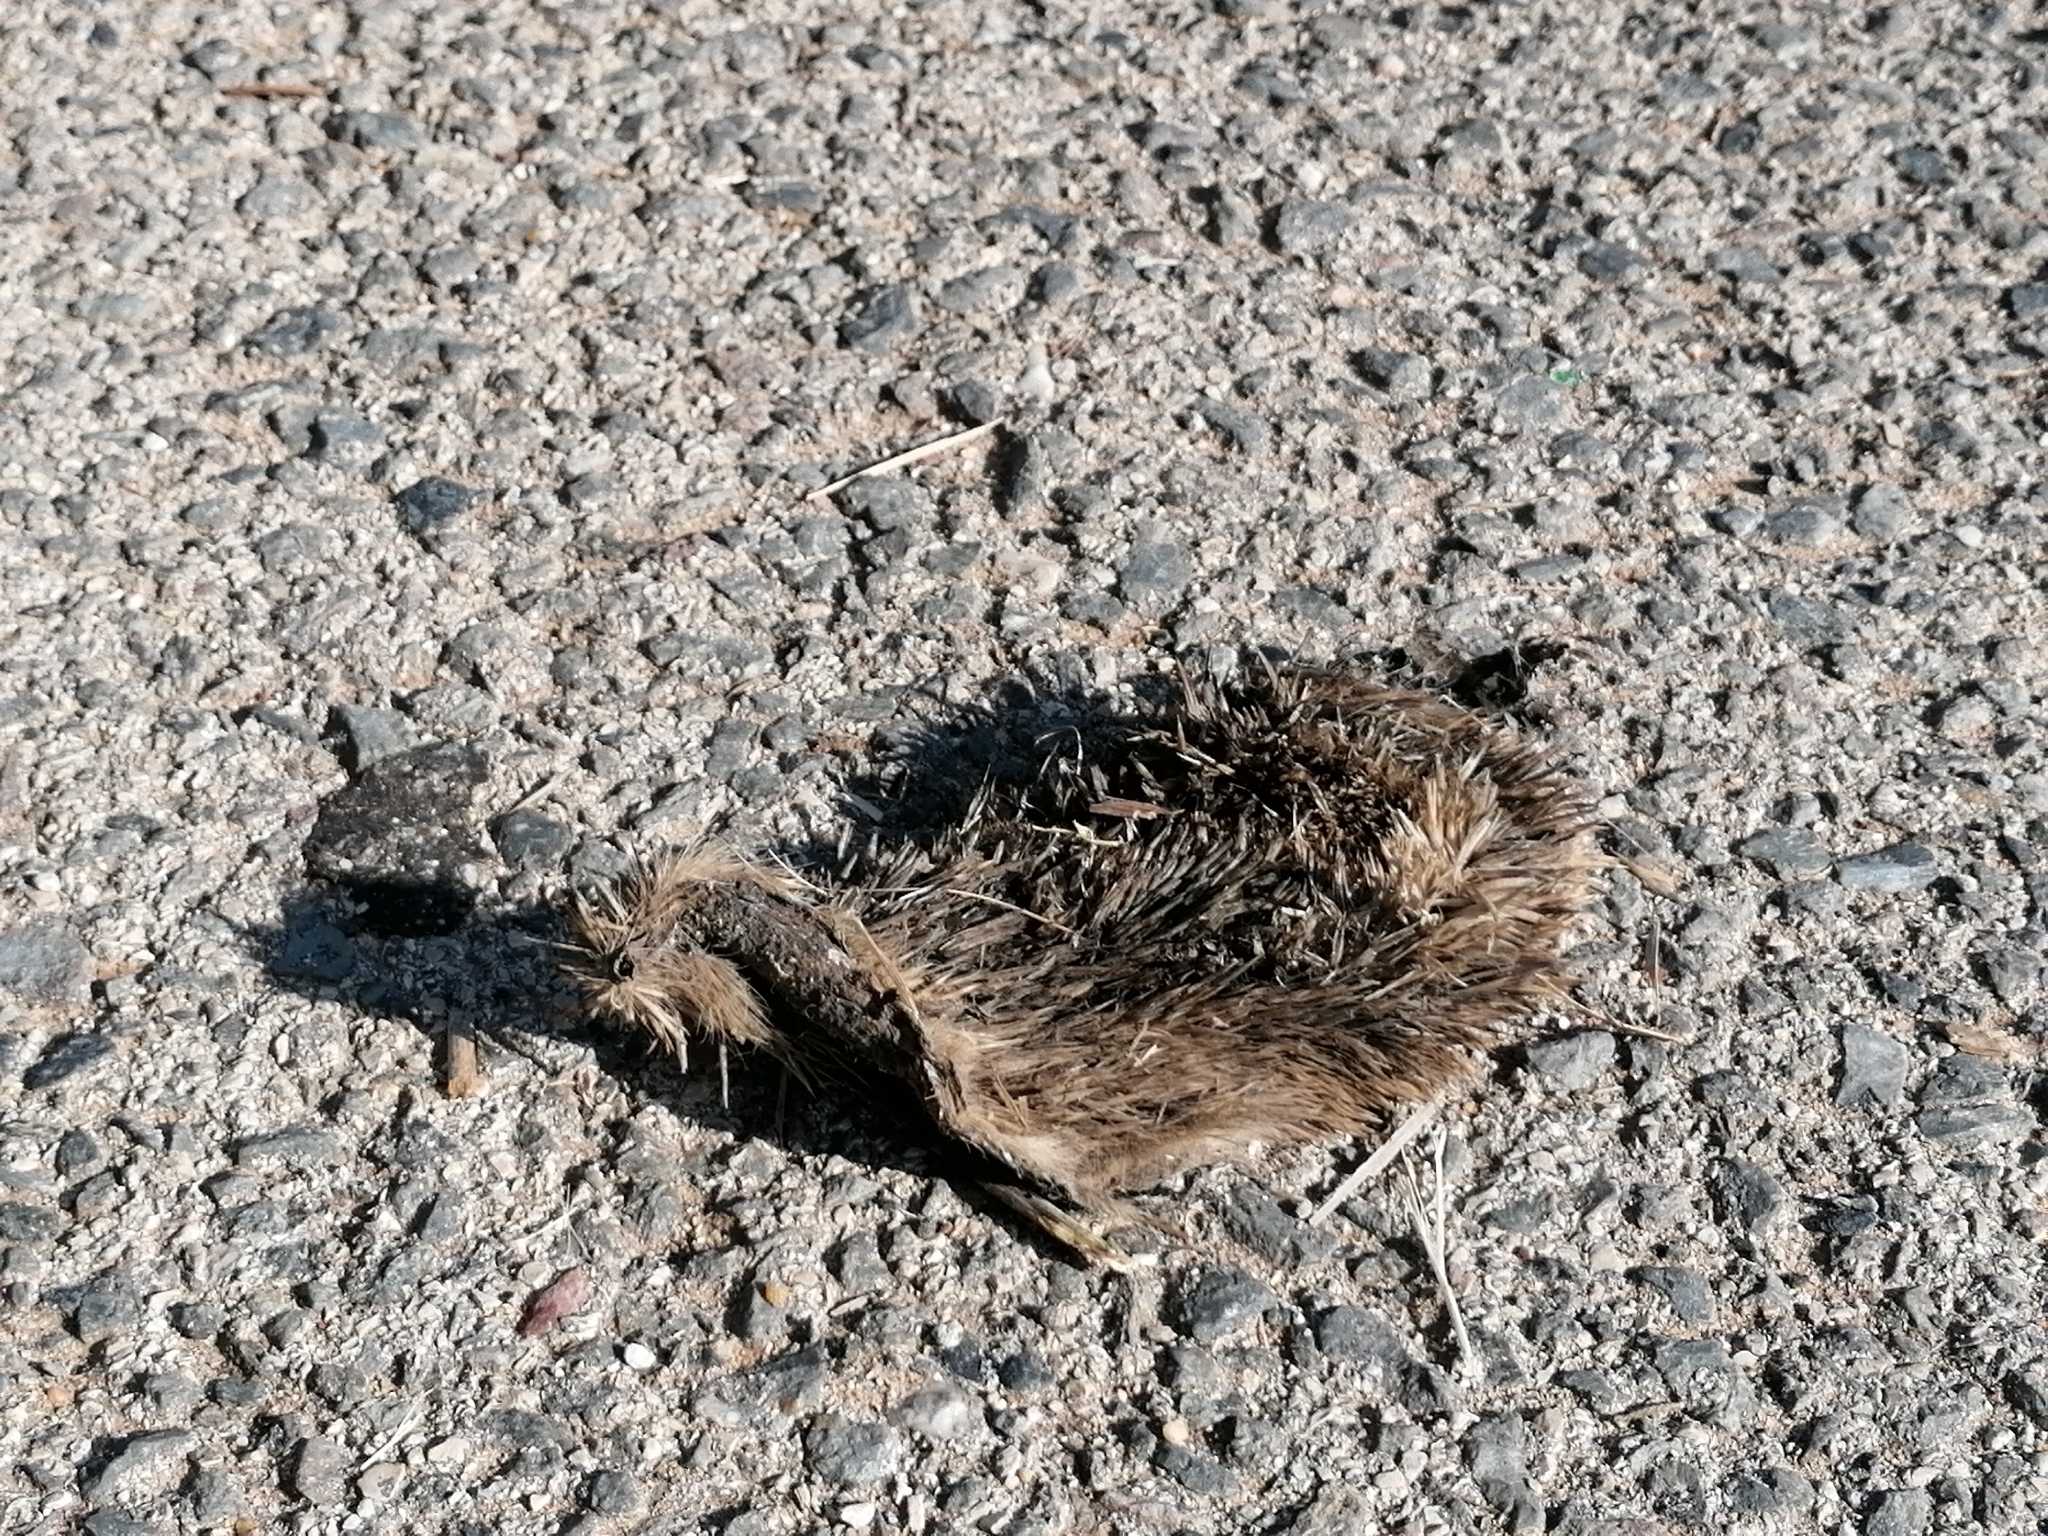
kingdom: Animalia
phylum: Chordata
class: Mammalia
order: Erinaceomorpha
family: Erinaceidae
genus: Erinaceus
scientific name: Erinaceus europaeus
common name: West european hedgehog
